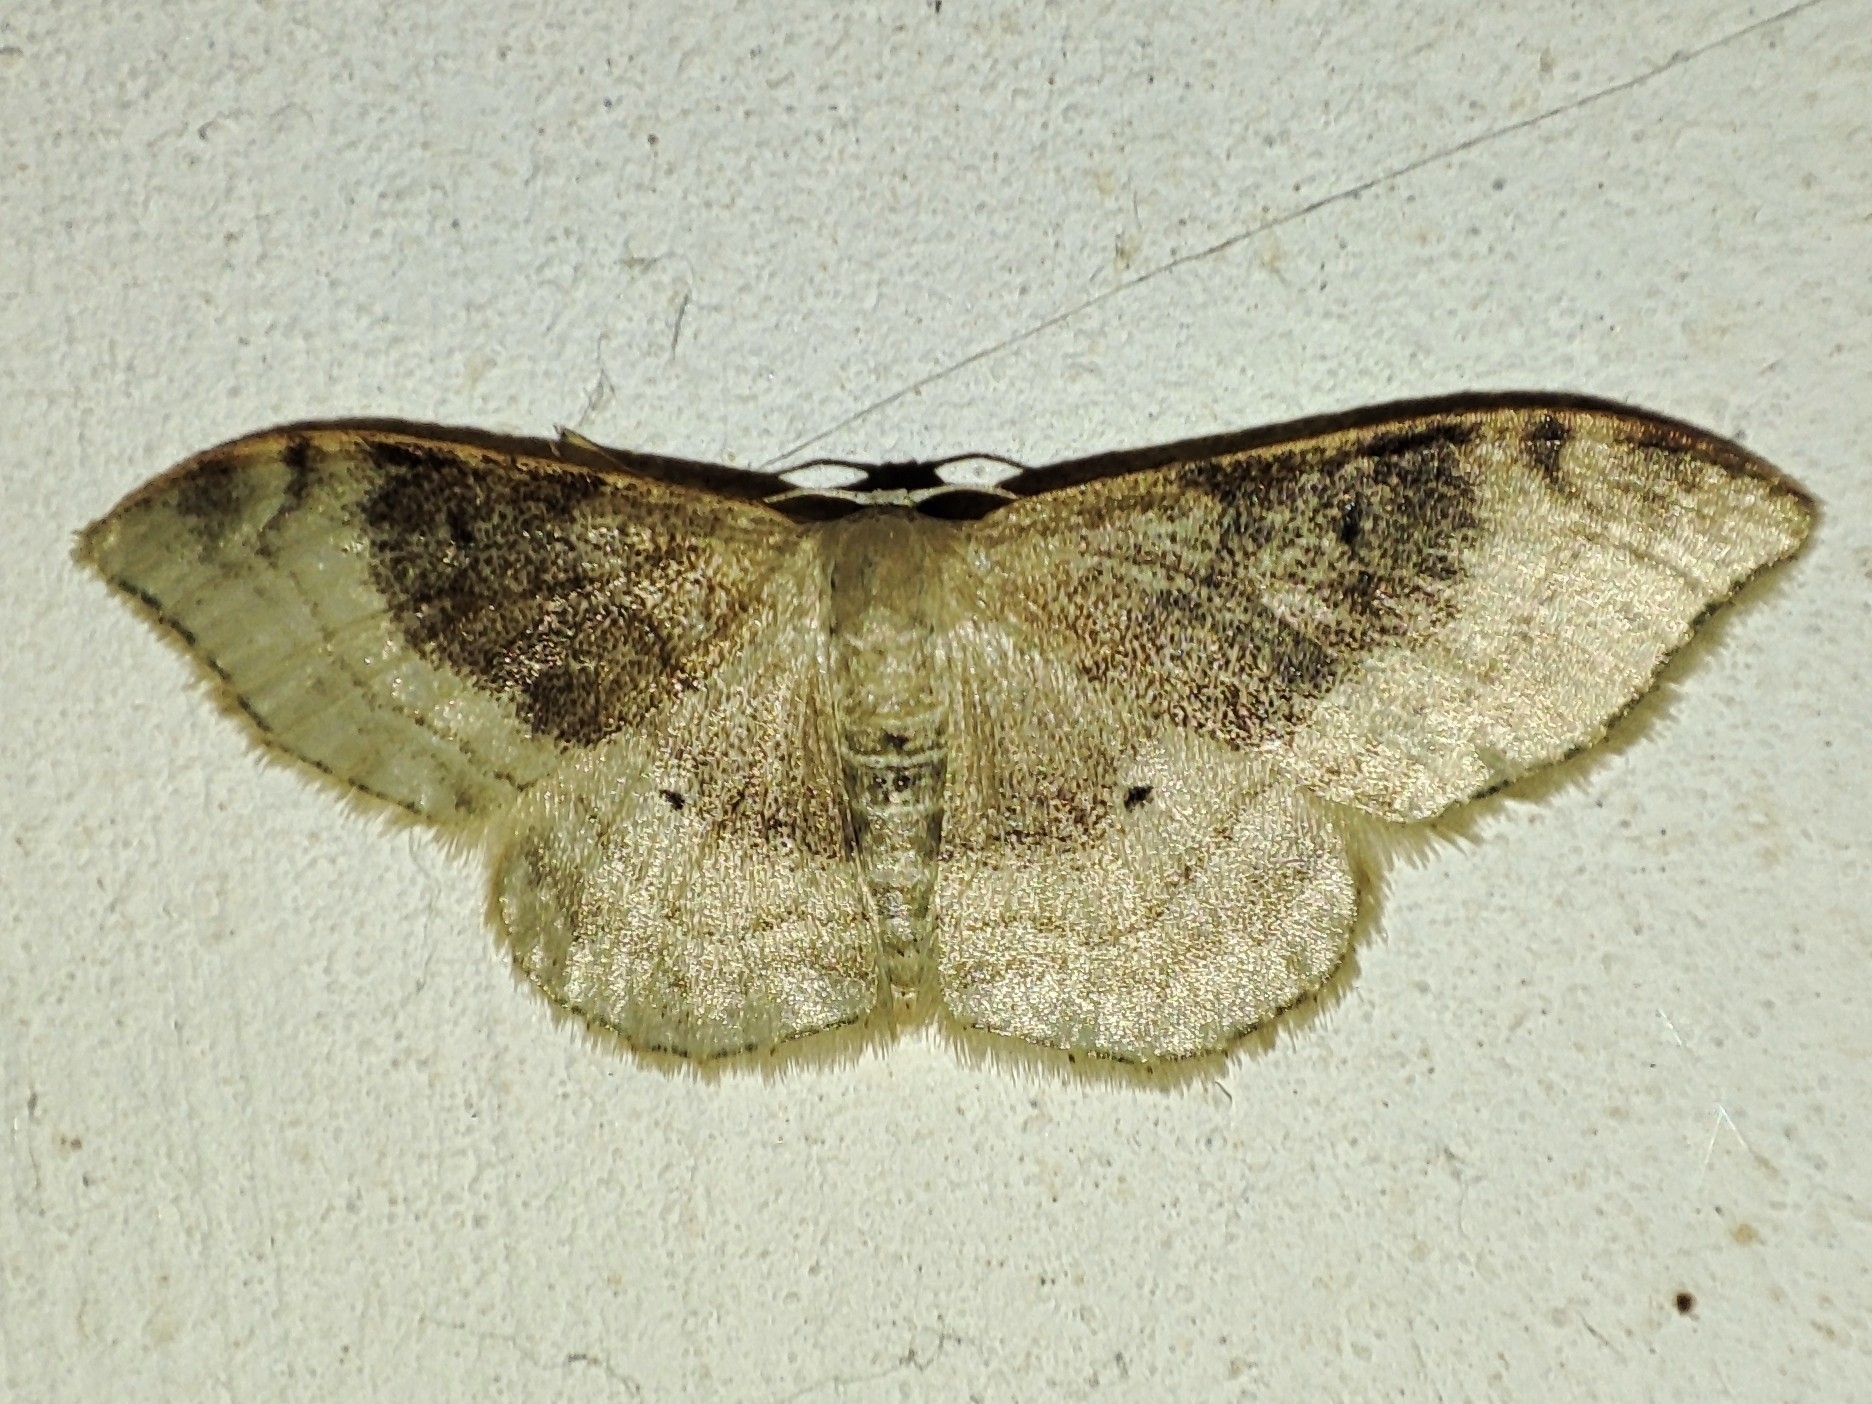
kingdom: Animalia
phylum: Arthropoda
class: Insecta
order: Lepidoptera
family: Geometridae
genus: Idaea
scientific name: Idaea degeneraria
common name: Portland ribbon wave
